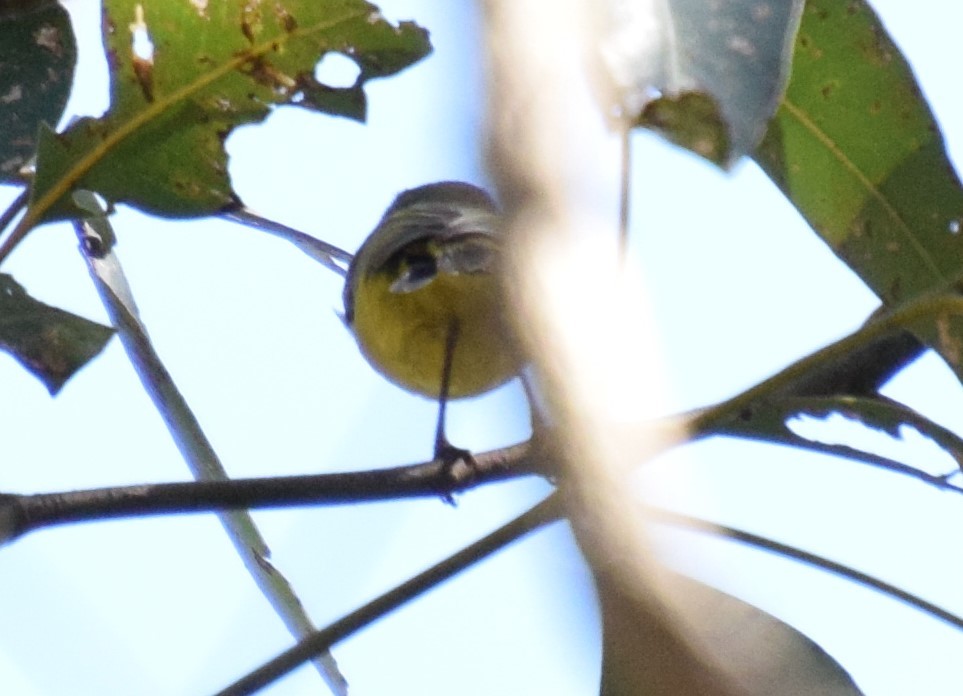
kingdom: Animalia
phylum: Chordata
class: Aves
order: Passeriformes
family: Acanthizidae
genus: Acanthiza
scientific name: Acanthiza nana
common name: Yellow thornbill
